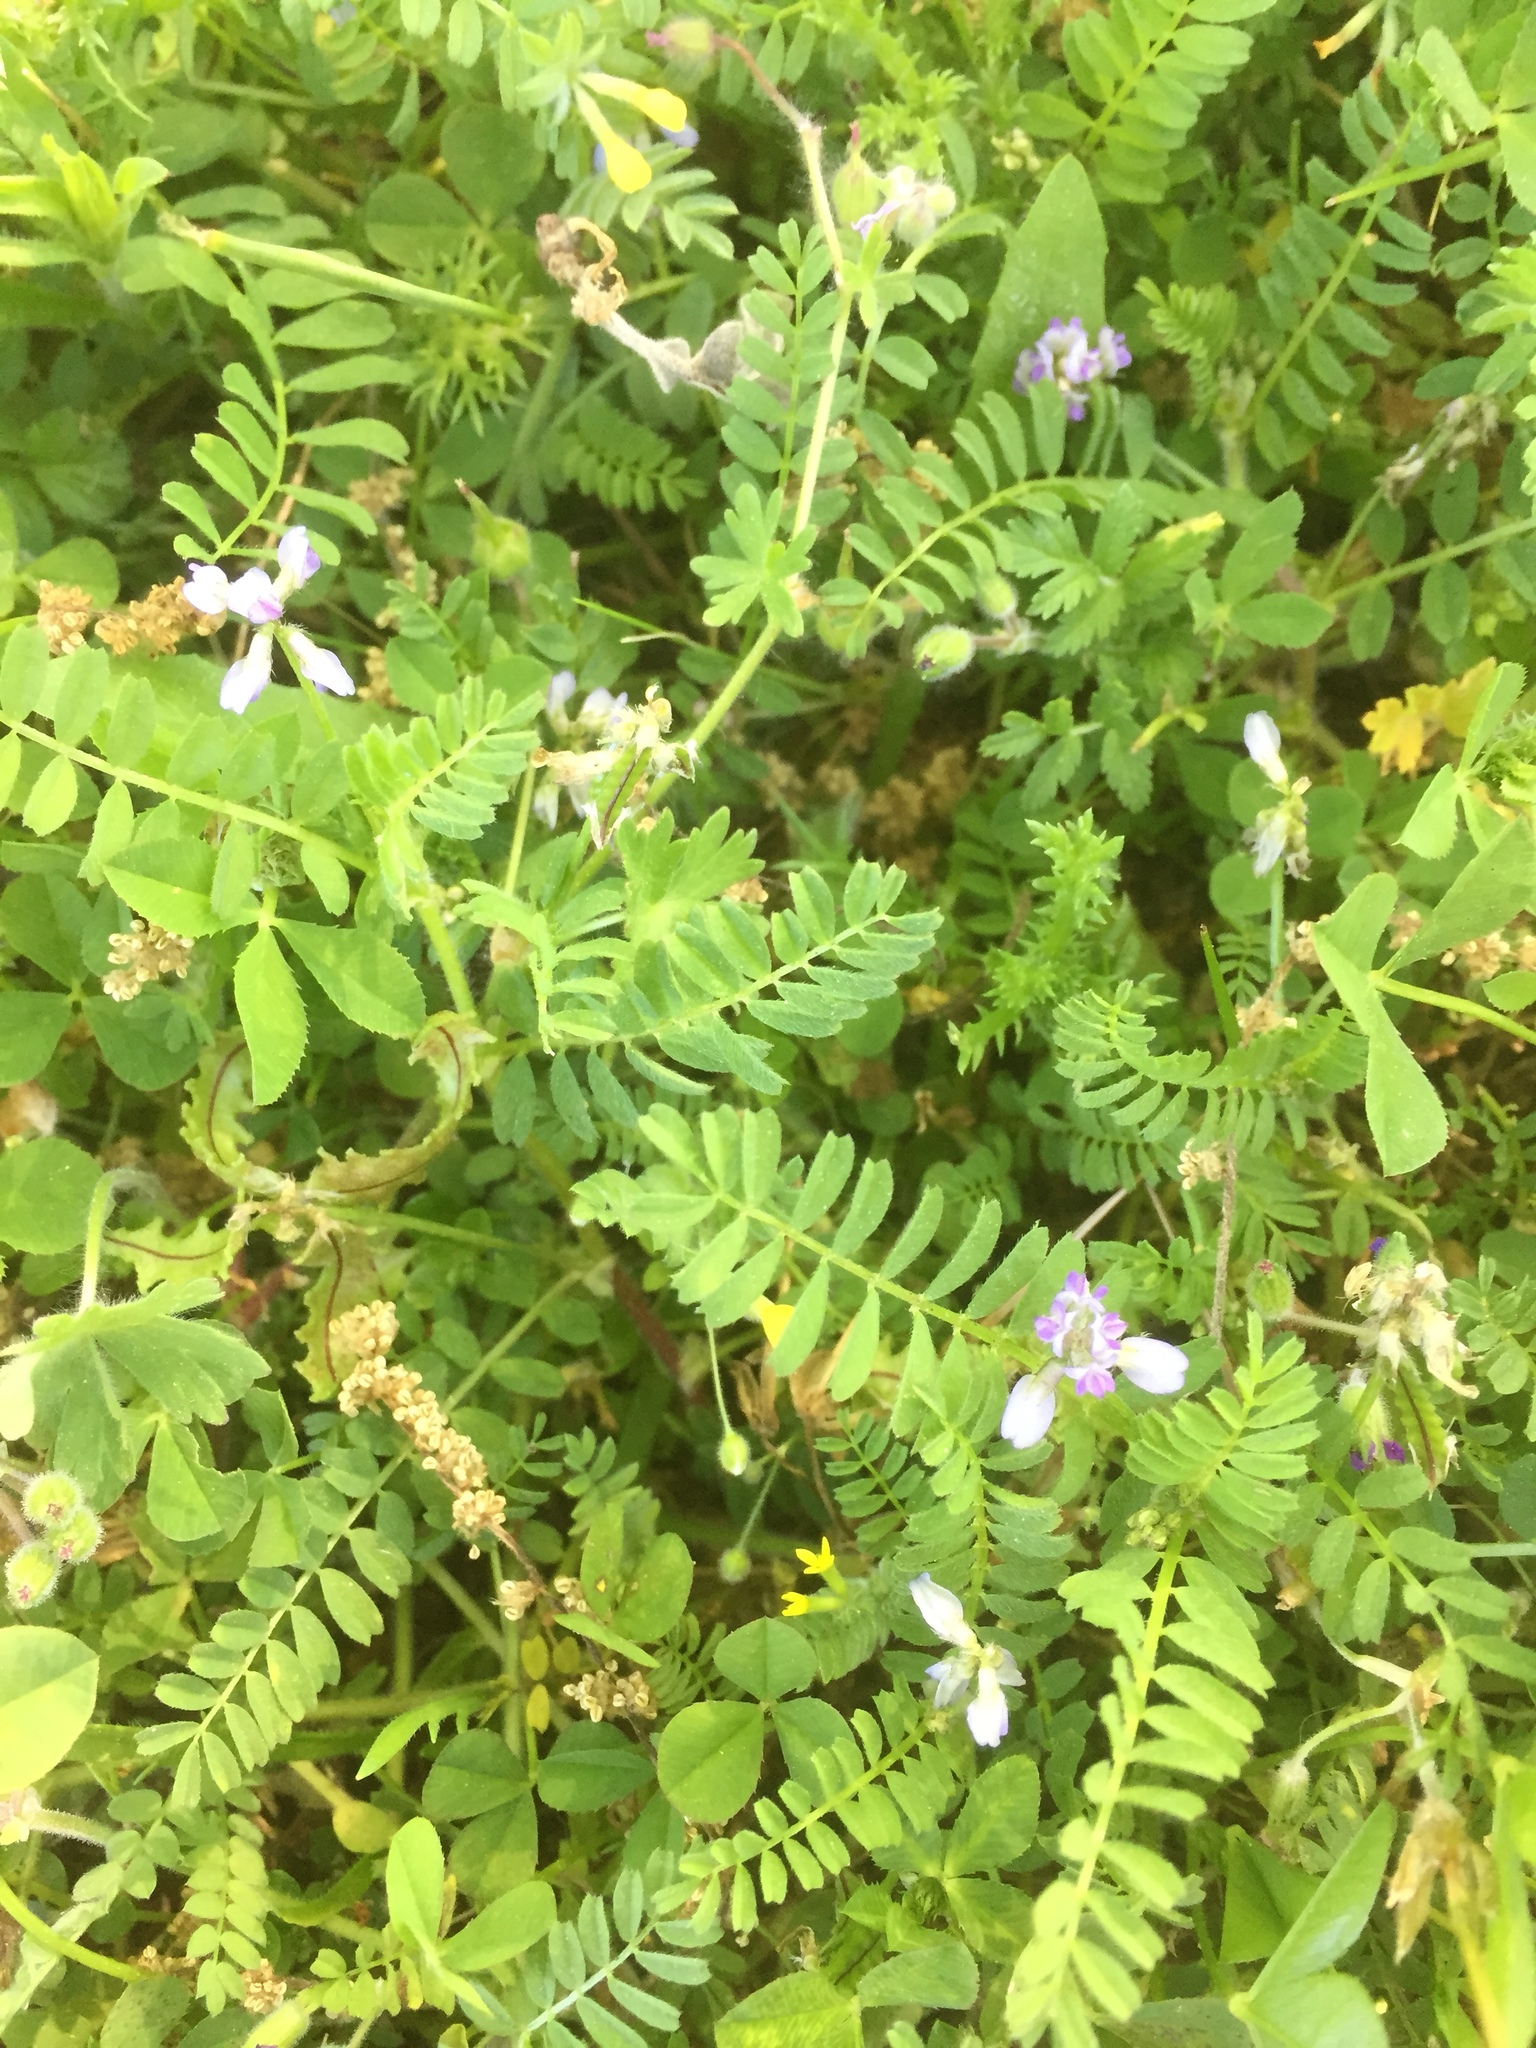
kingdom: Plantae
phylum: Tracheophyta
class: Magnoliopsida
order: Fabales
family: Fabaceae
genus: Biserrula
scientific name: Biserrula pelecinus
